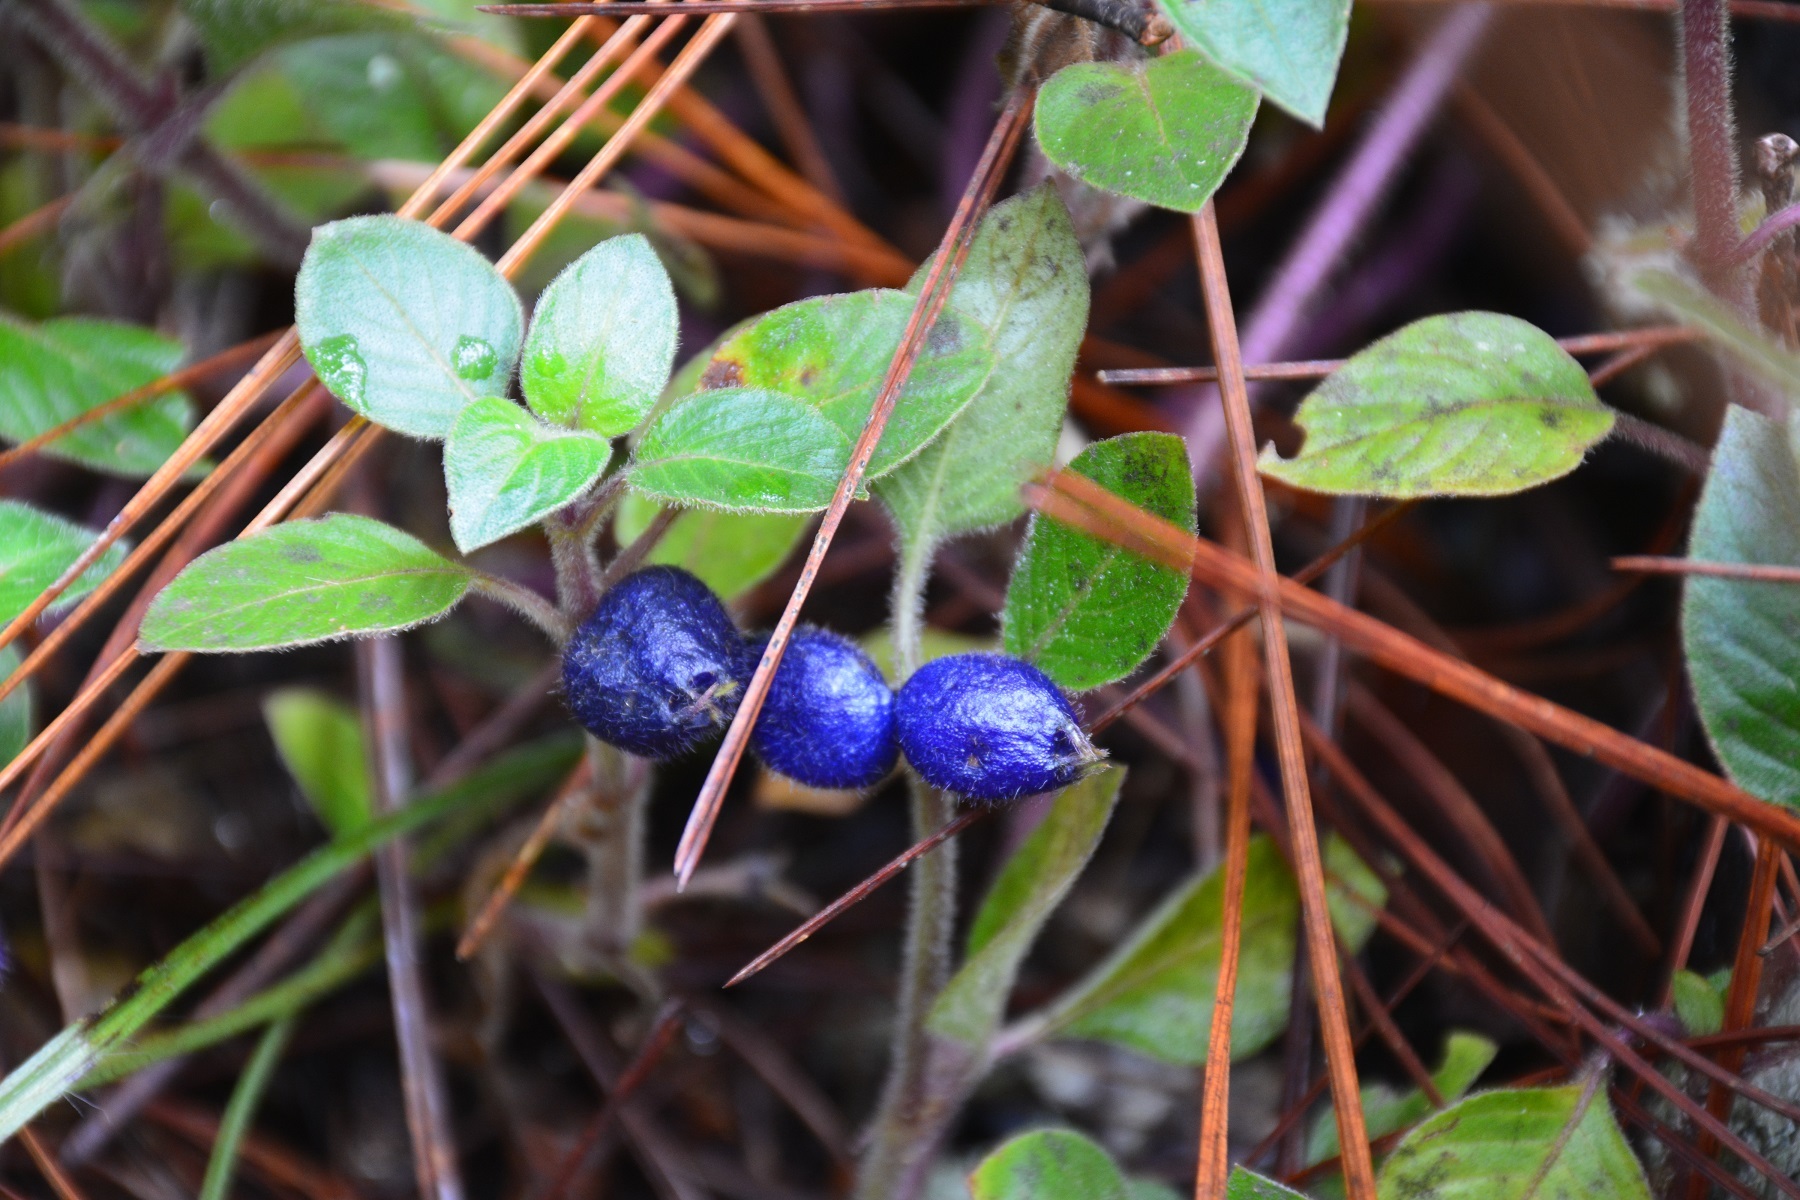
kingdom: Plantae
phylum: Tracheophyta
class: Magnoliopsida
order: Gentianales
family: Rubiaceae
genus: Coccocypselum
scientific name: Coccocypselum cordifolium
